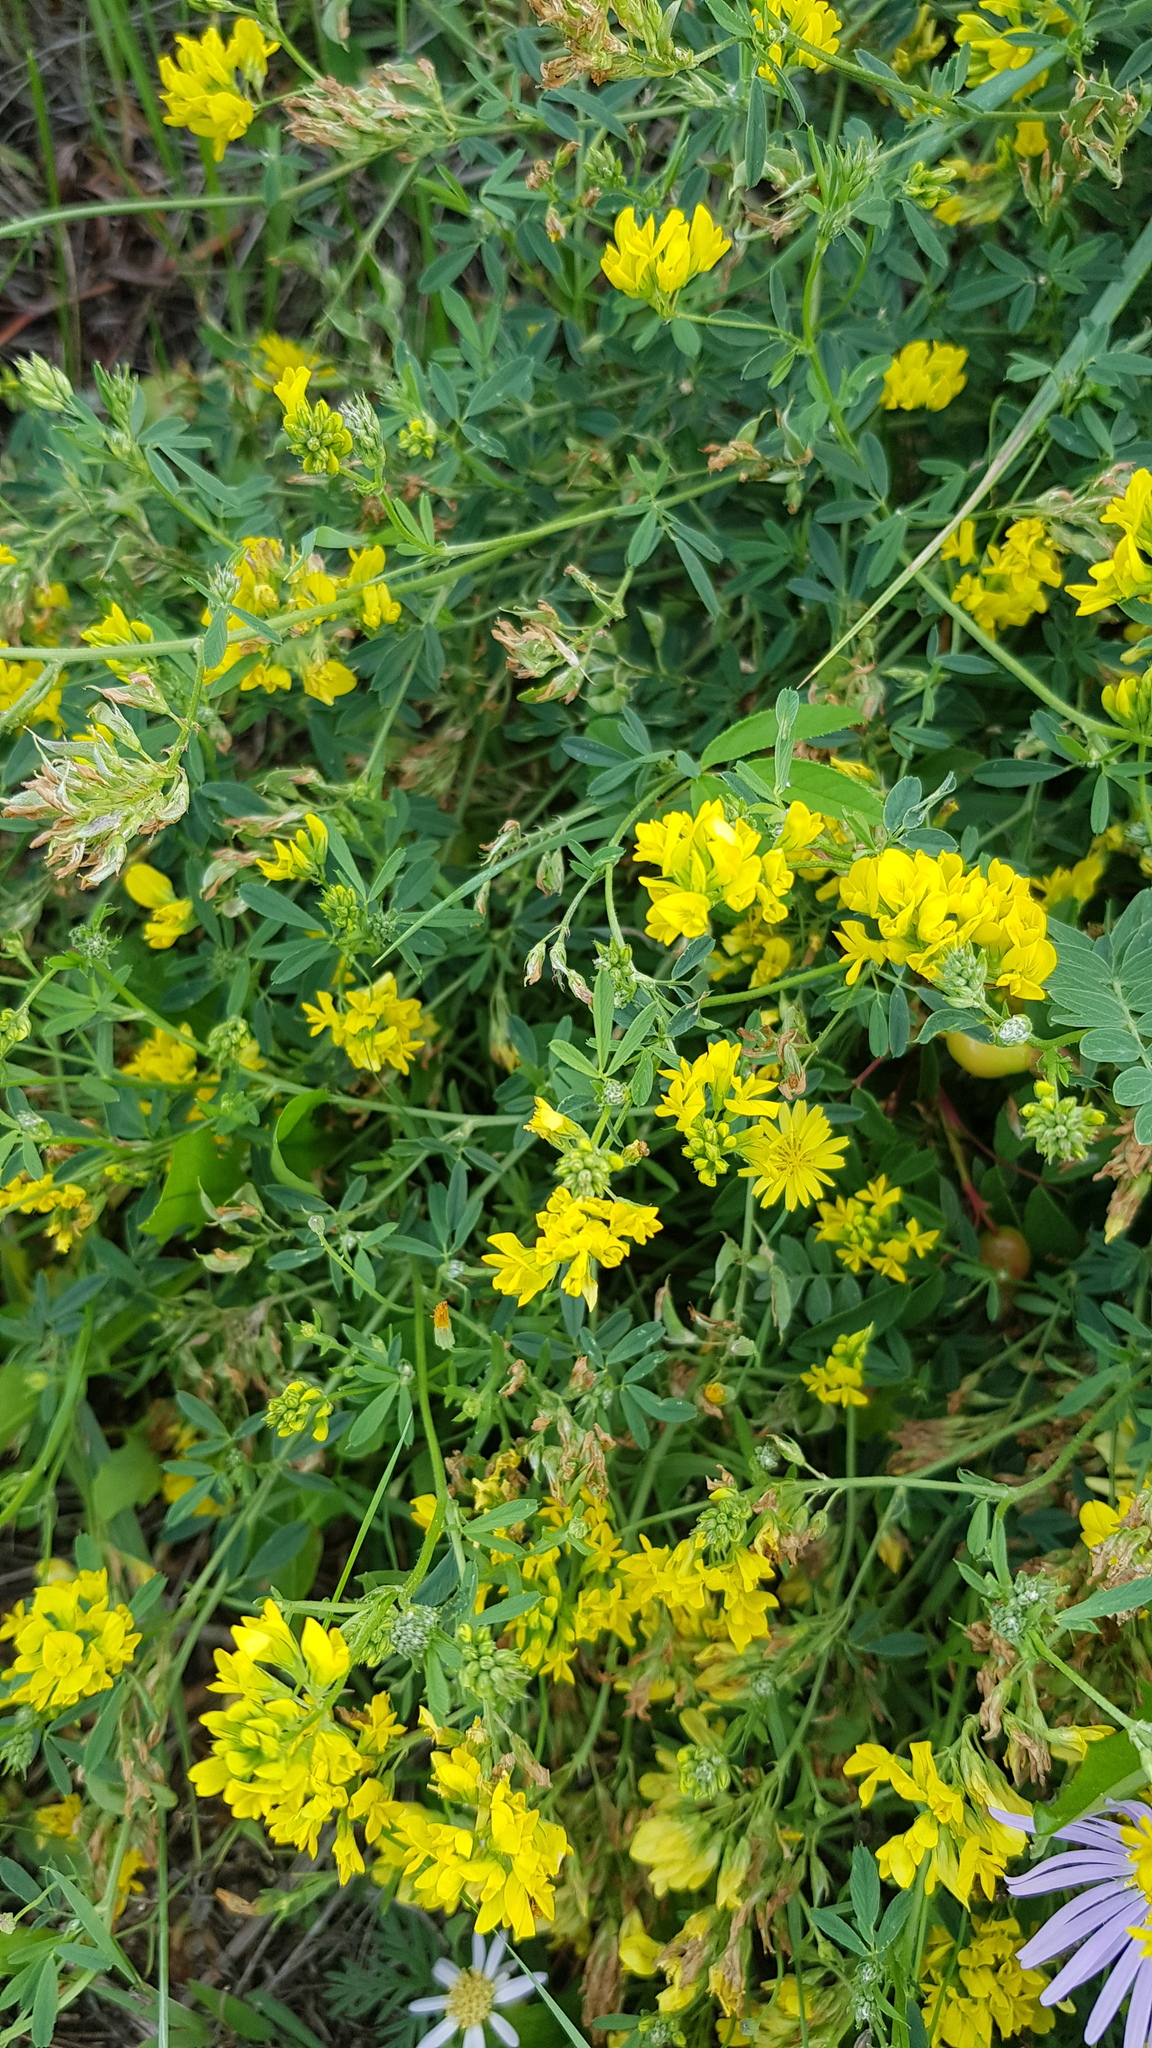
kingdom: Plantae
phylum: Tracheophyta
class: Magnoliopsida
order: Fabales
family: Fabaceae
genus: Medicago
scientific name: Medicago falcata
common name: Sickle medick
